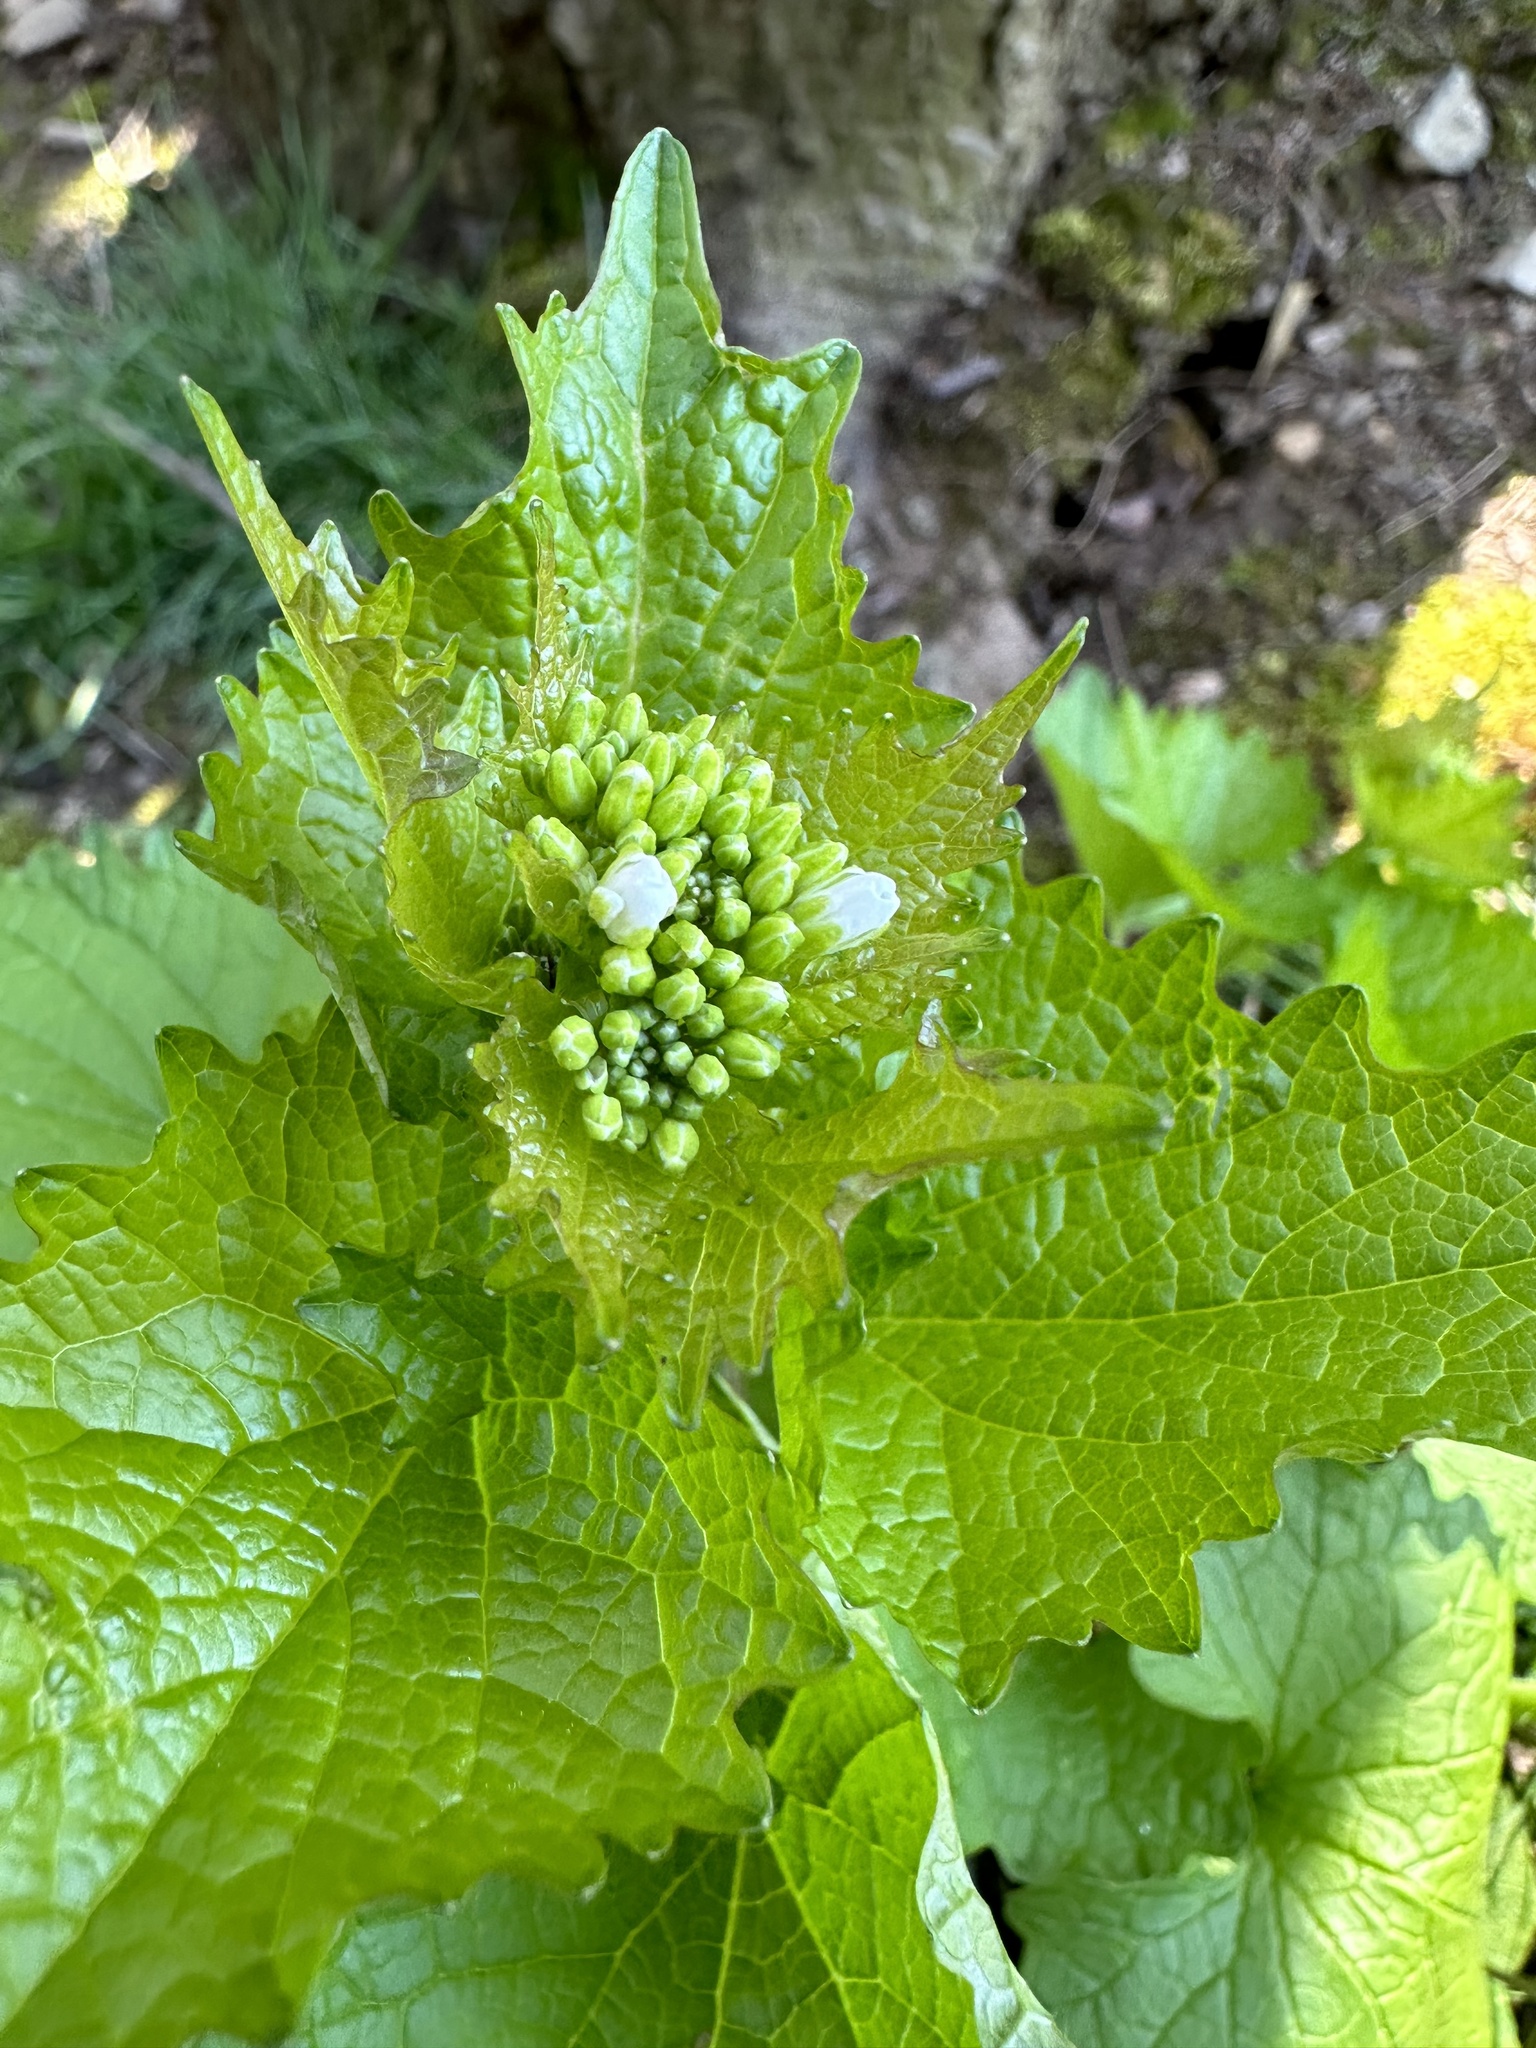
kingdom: Plantae
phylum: Tracheophyta
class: Magnoliopsida
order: Brassicales
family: Brassicaceae
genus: Alliaria
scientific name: Alliaria petiolata
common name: Garlic mustard
